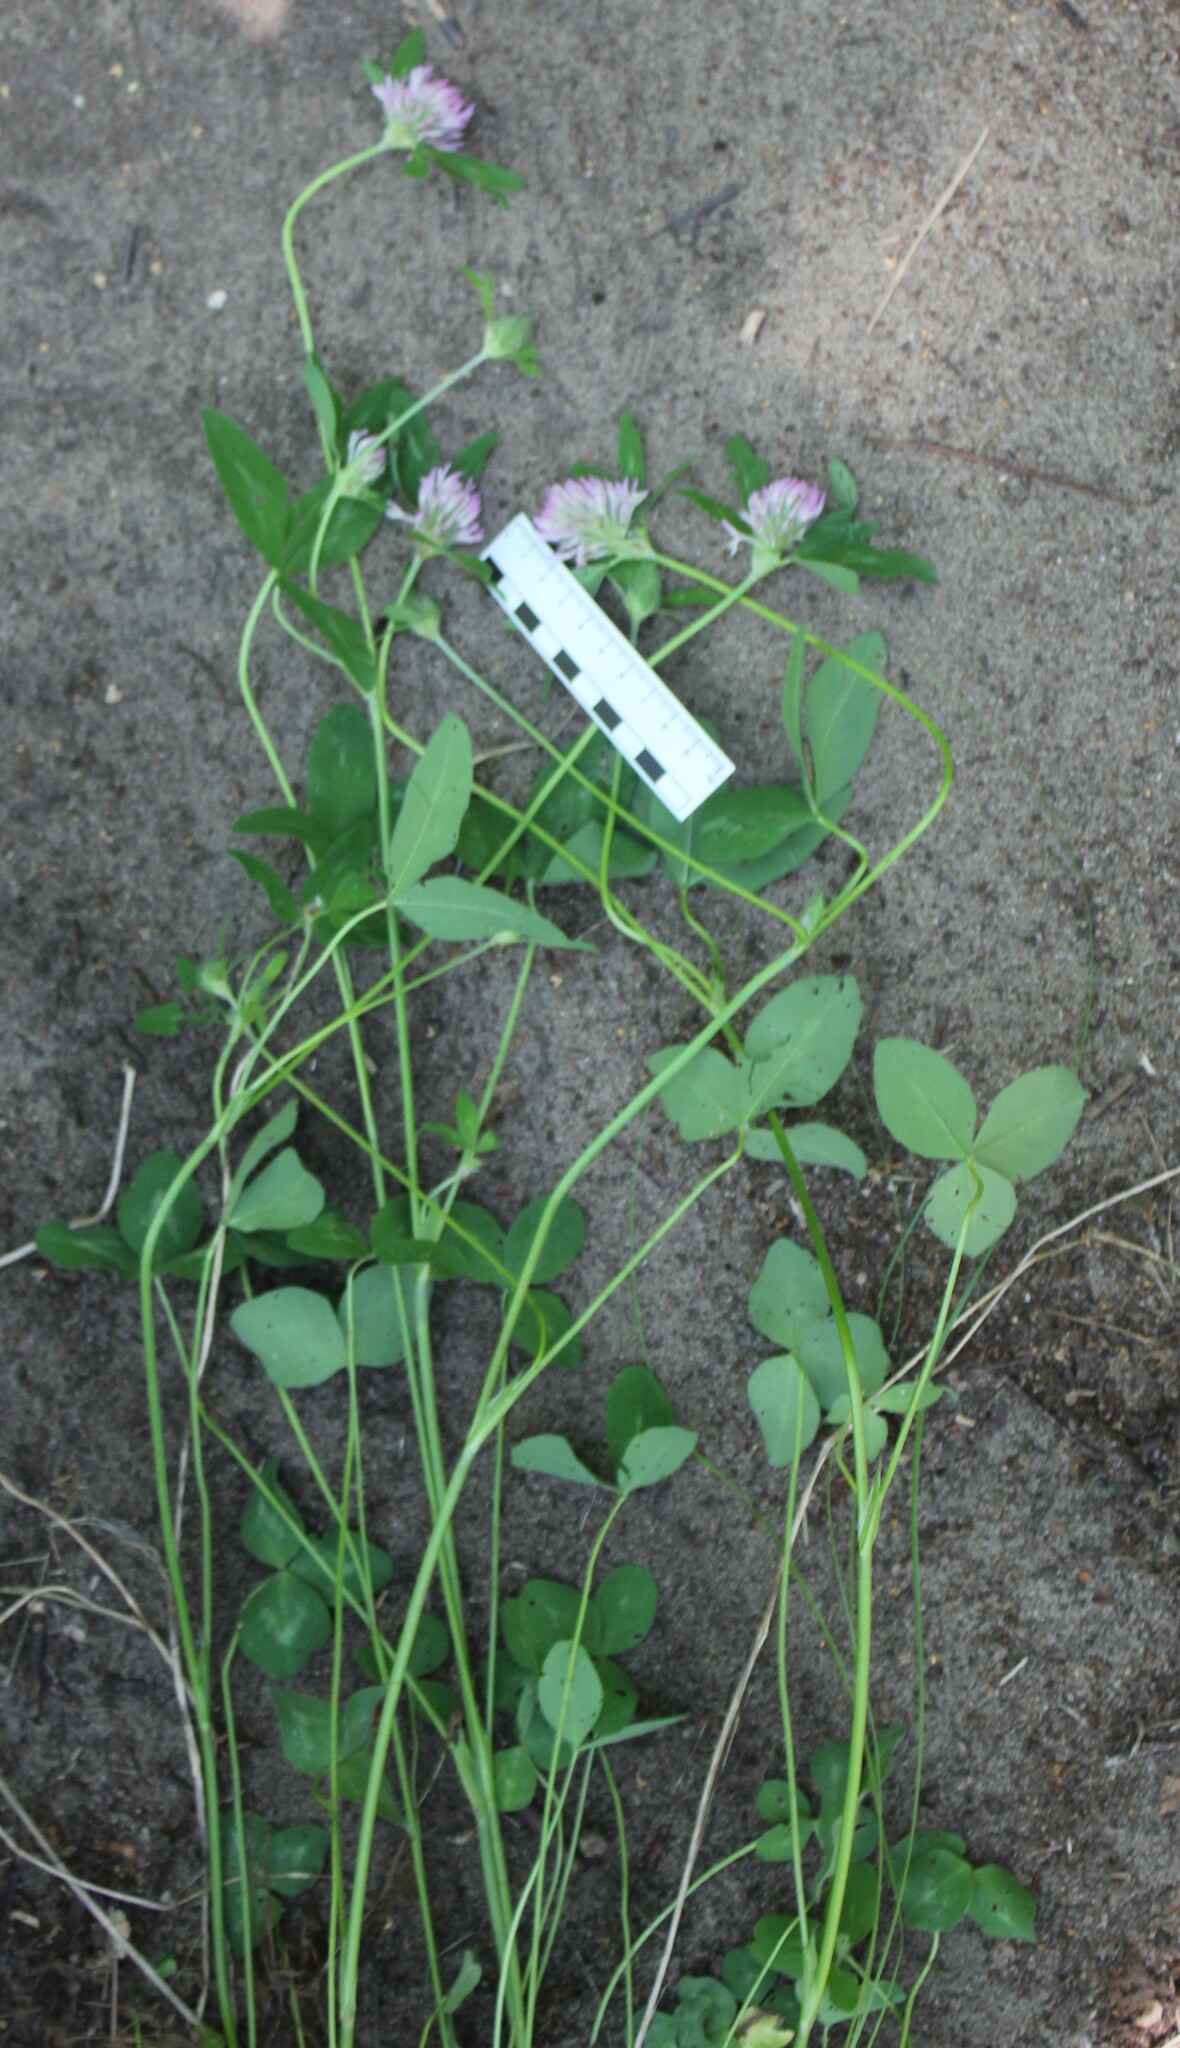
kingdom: Plantae
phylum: Tracheophyta
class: Magnoliopsida
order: Fabales
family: Fabaceae
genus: Trifolium
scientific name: Trifolium pratense
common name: Red clover
